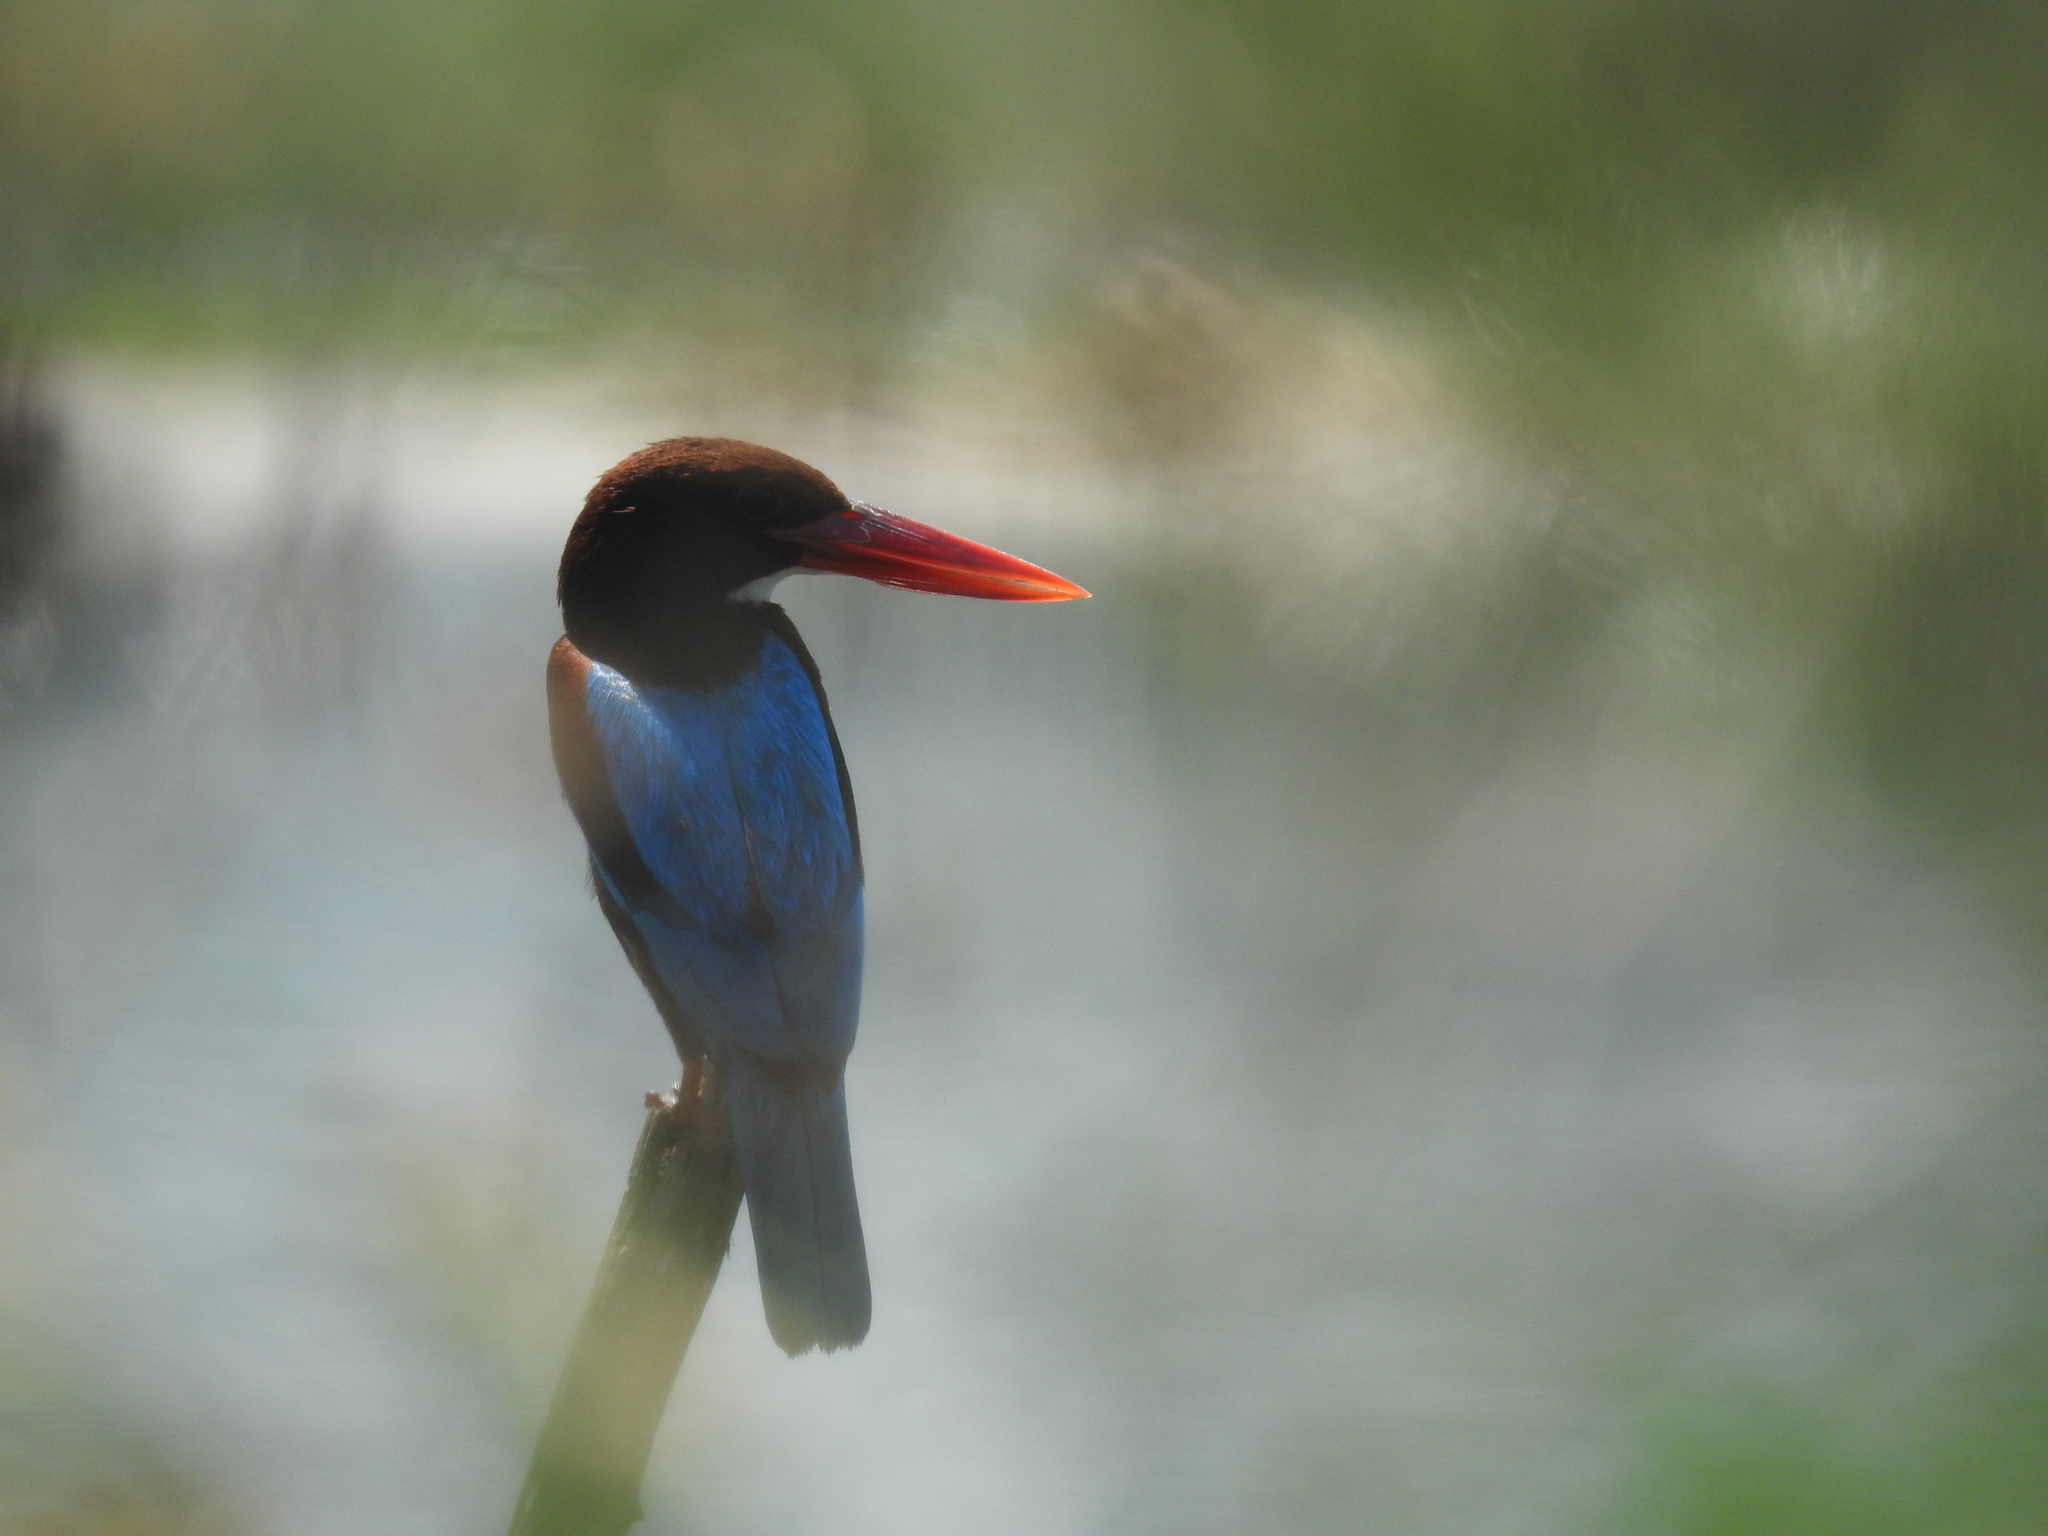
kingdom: Animalia
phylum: Chordata
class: Aves
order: Coraciiformes
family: Alcedinidae
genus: Halcyon
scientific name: Halcyon smyrnensis
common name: White-throated kingfisher
